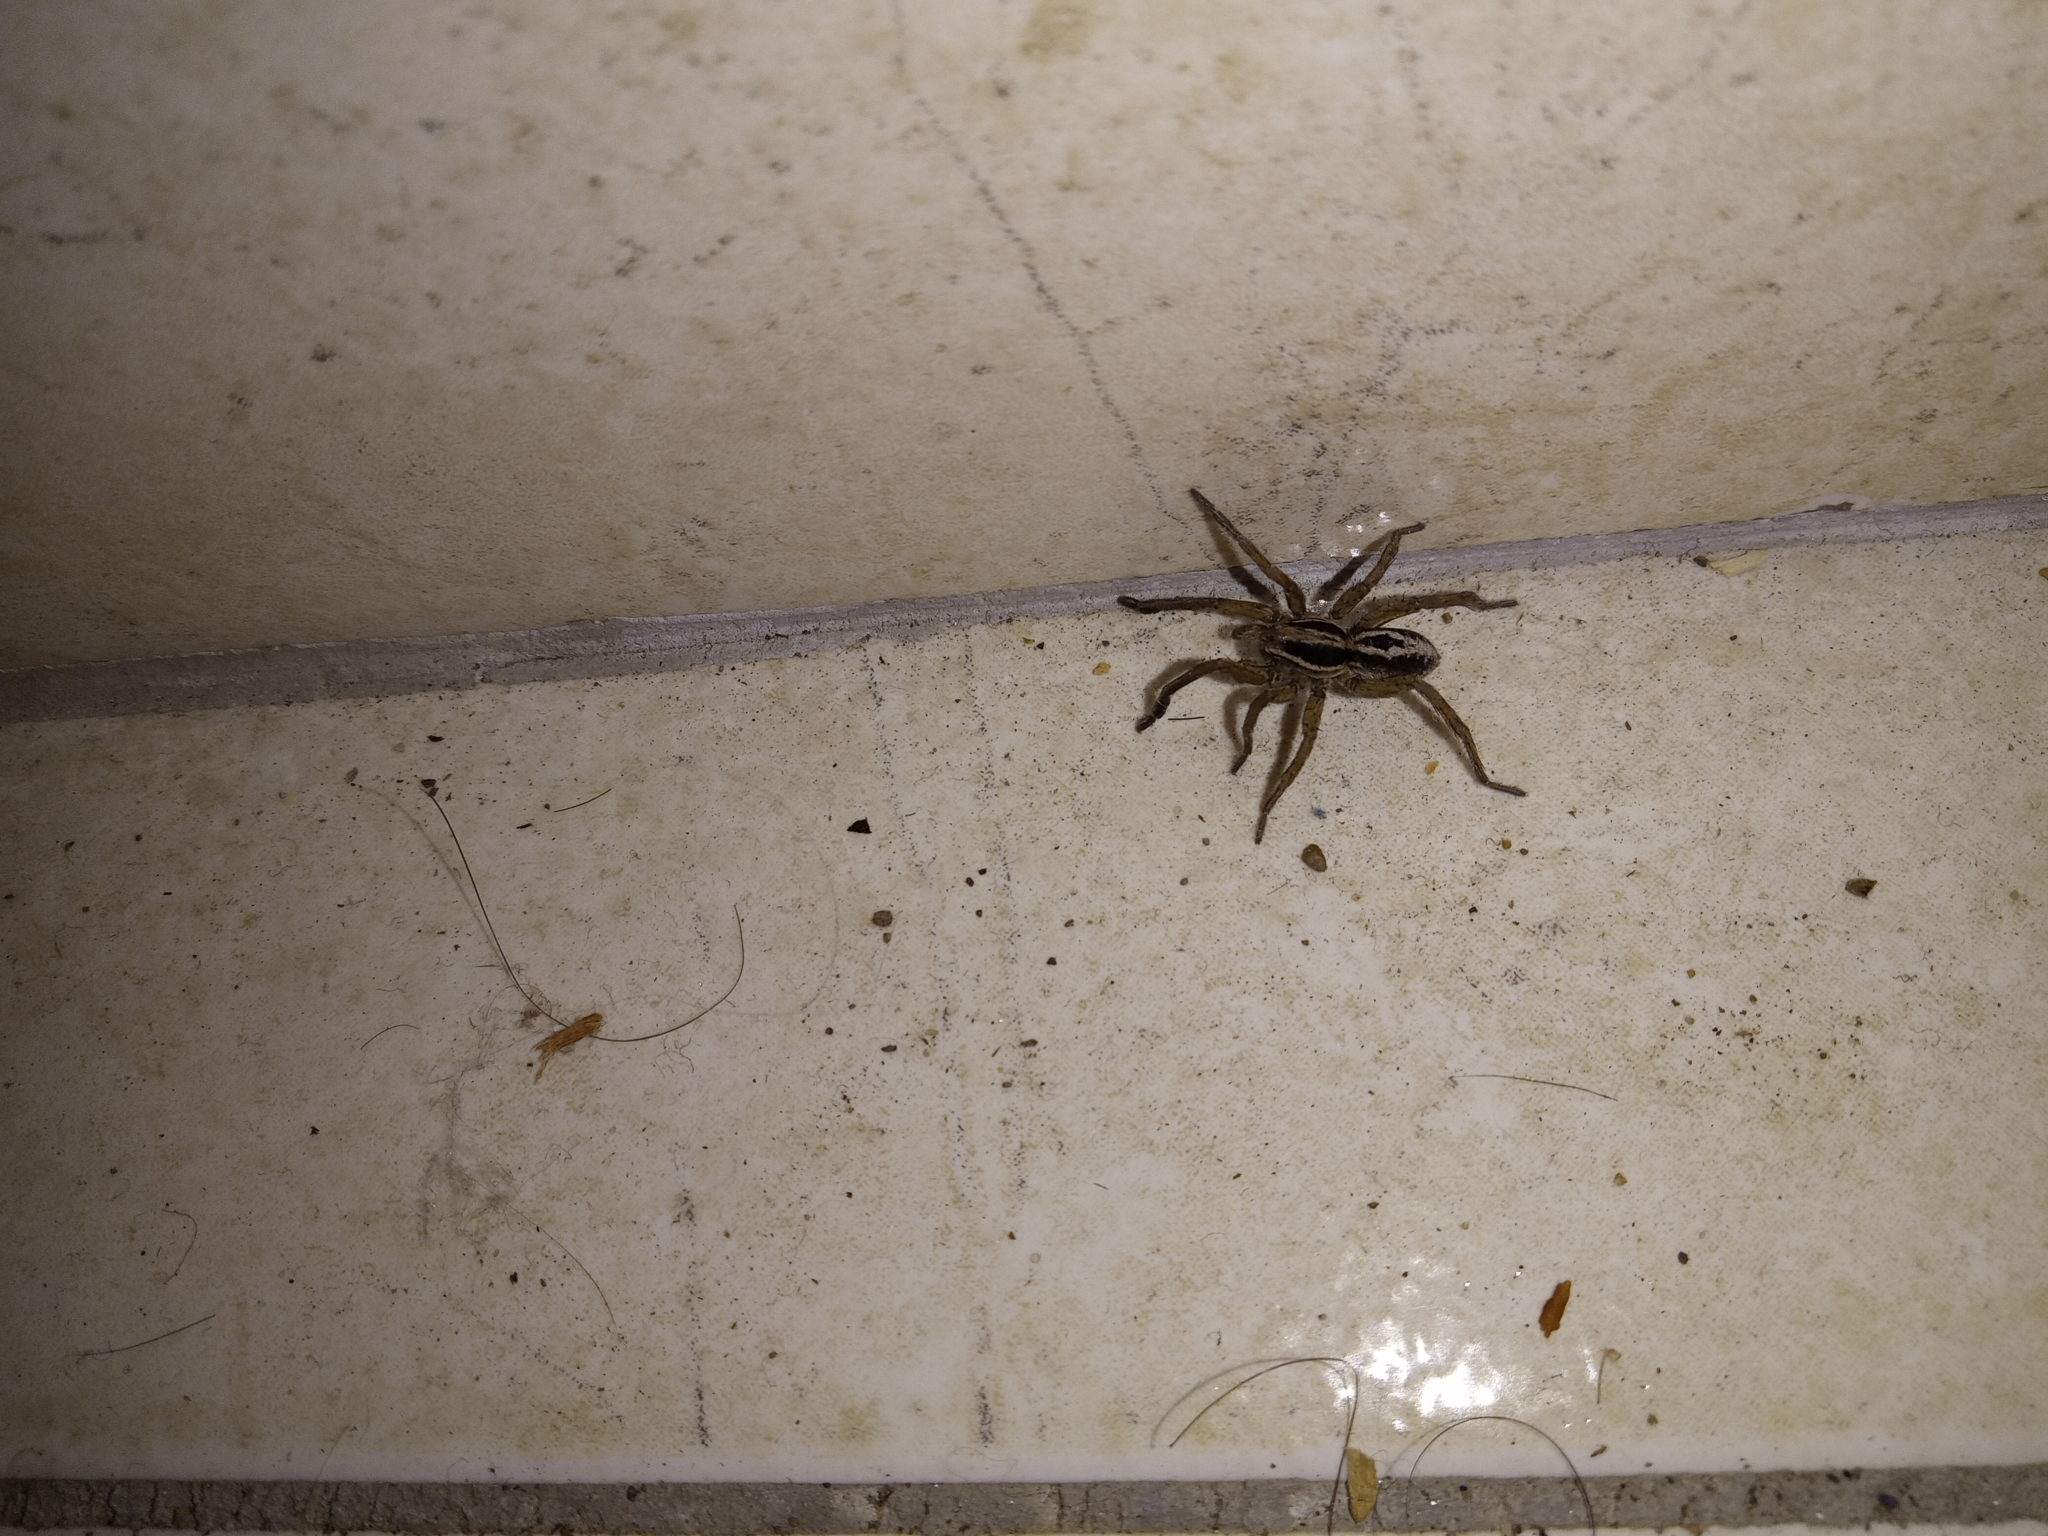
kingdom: Animalia
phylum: Arthropoda
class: Arachnida
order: Araneae
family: Lycosidae
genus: Alopecosa
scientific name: Alopecosa nigricans
